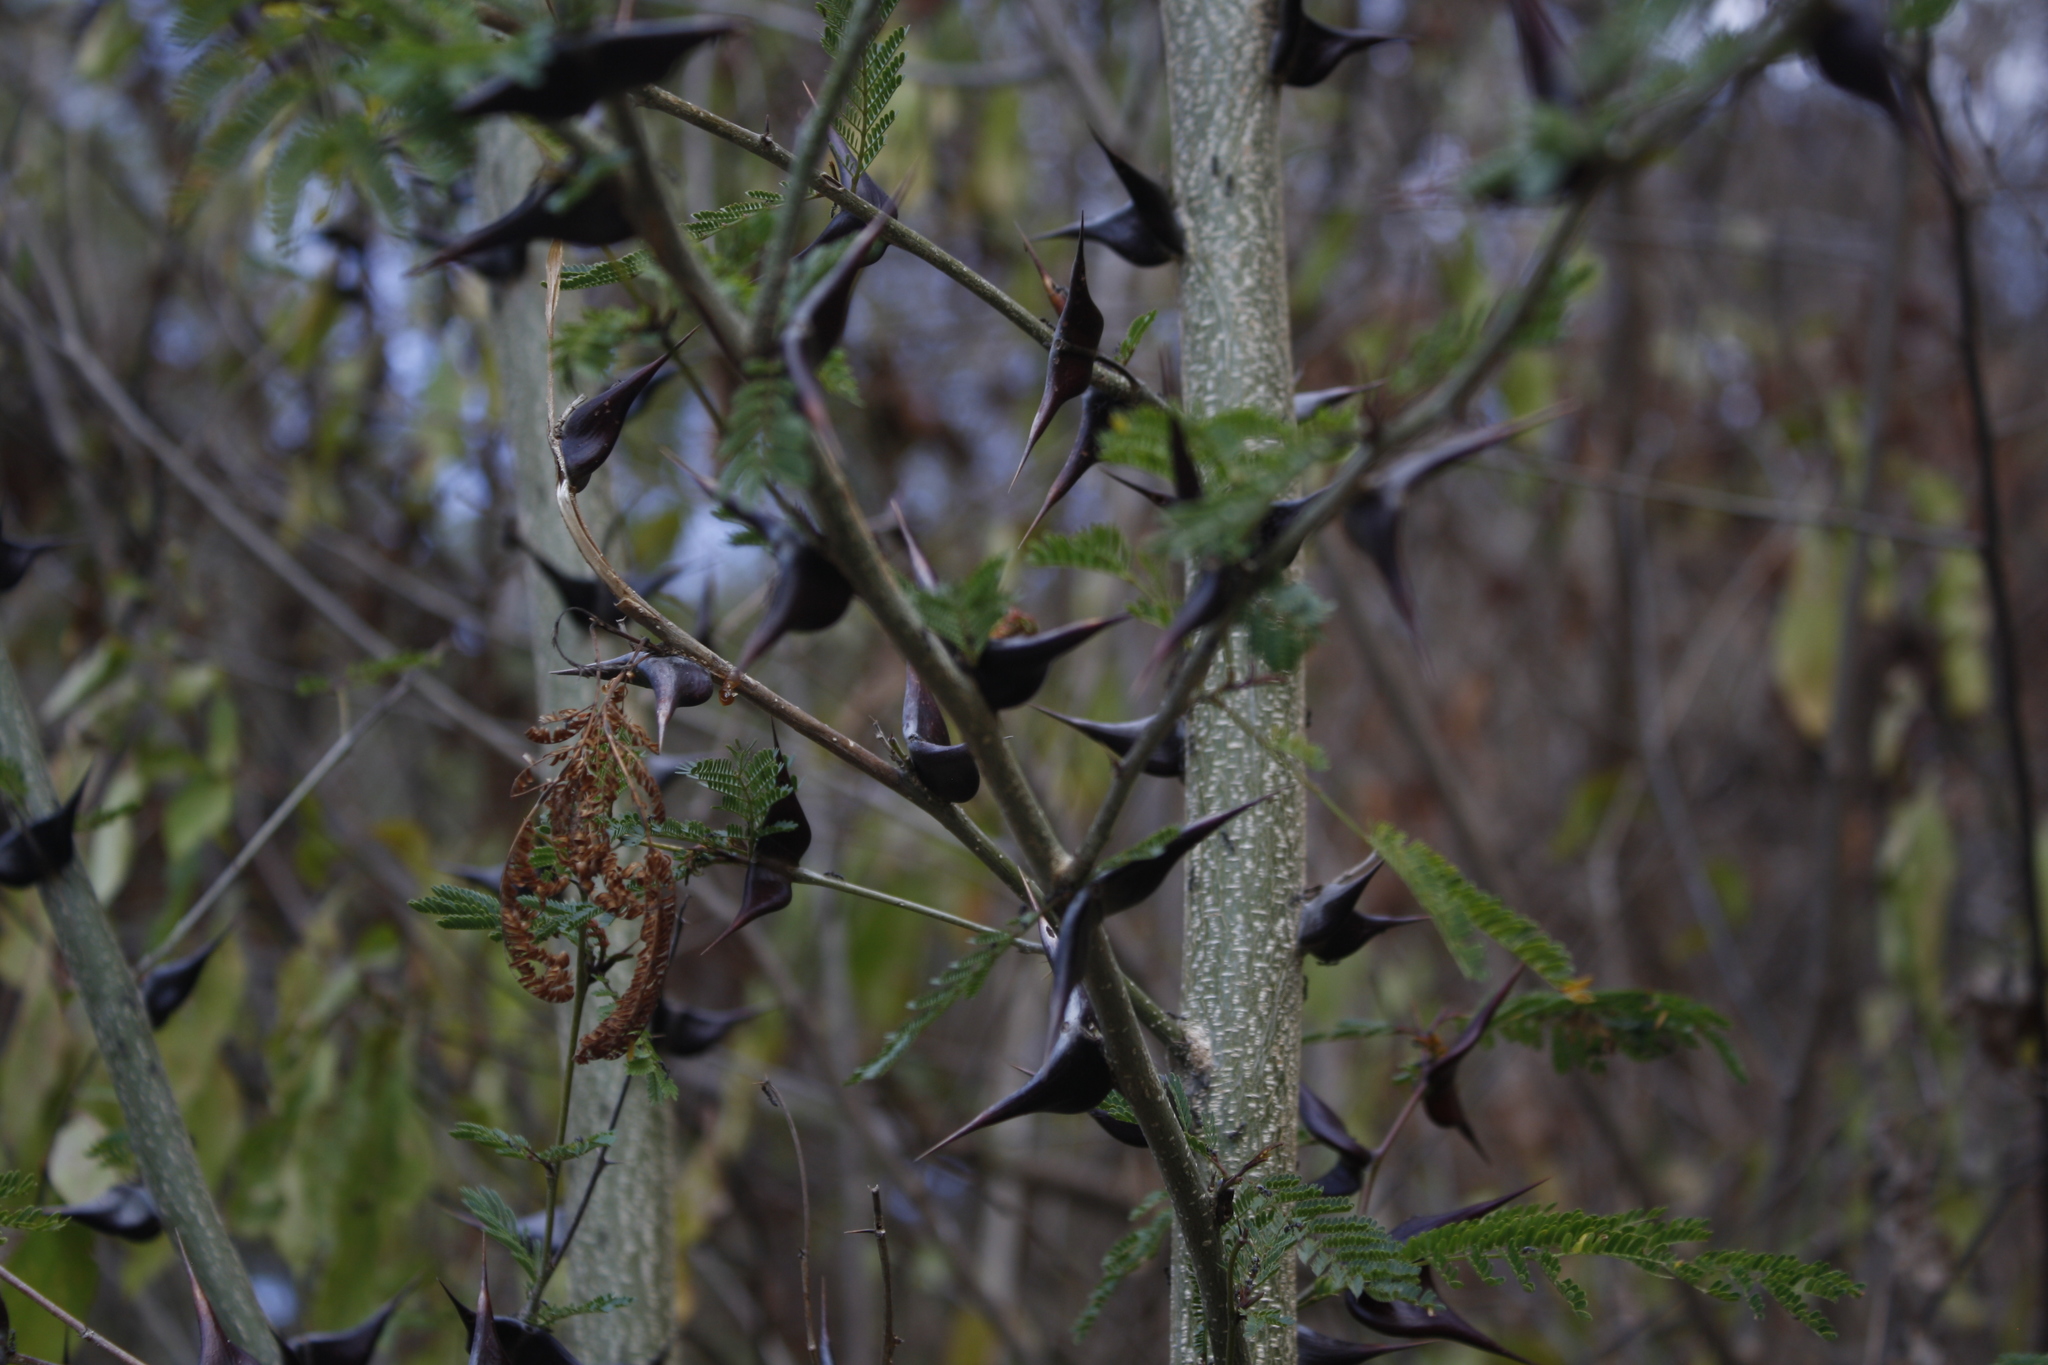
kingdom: Plantae
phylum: Tracheophyta
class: Magnoliopsida
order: Fabales
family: Fabaceae
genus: Vachellia
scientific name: Vachellia hindsii
